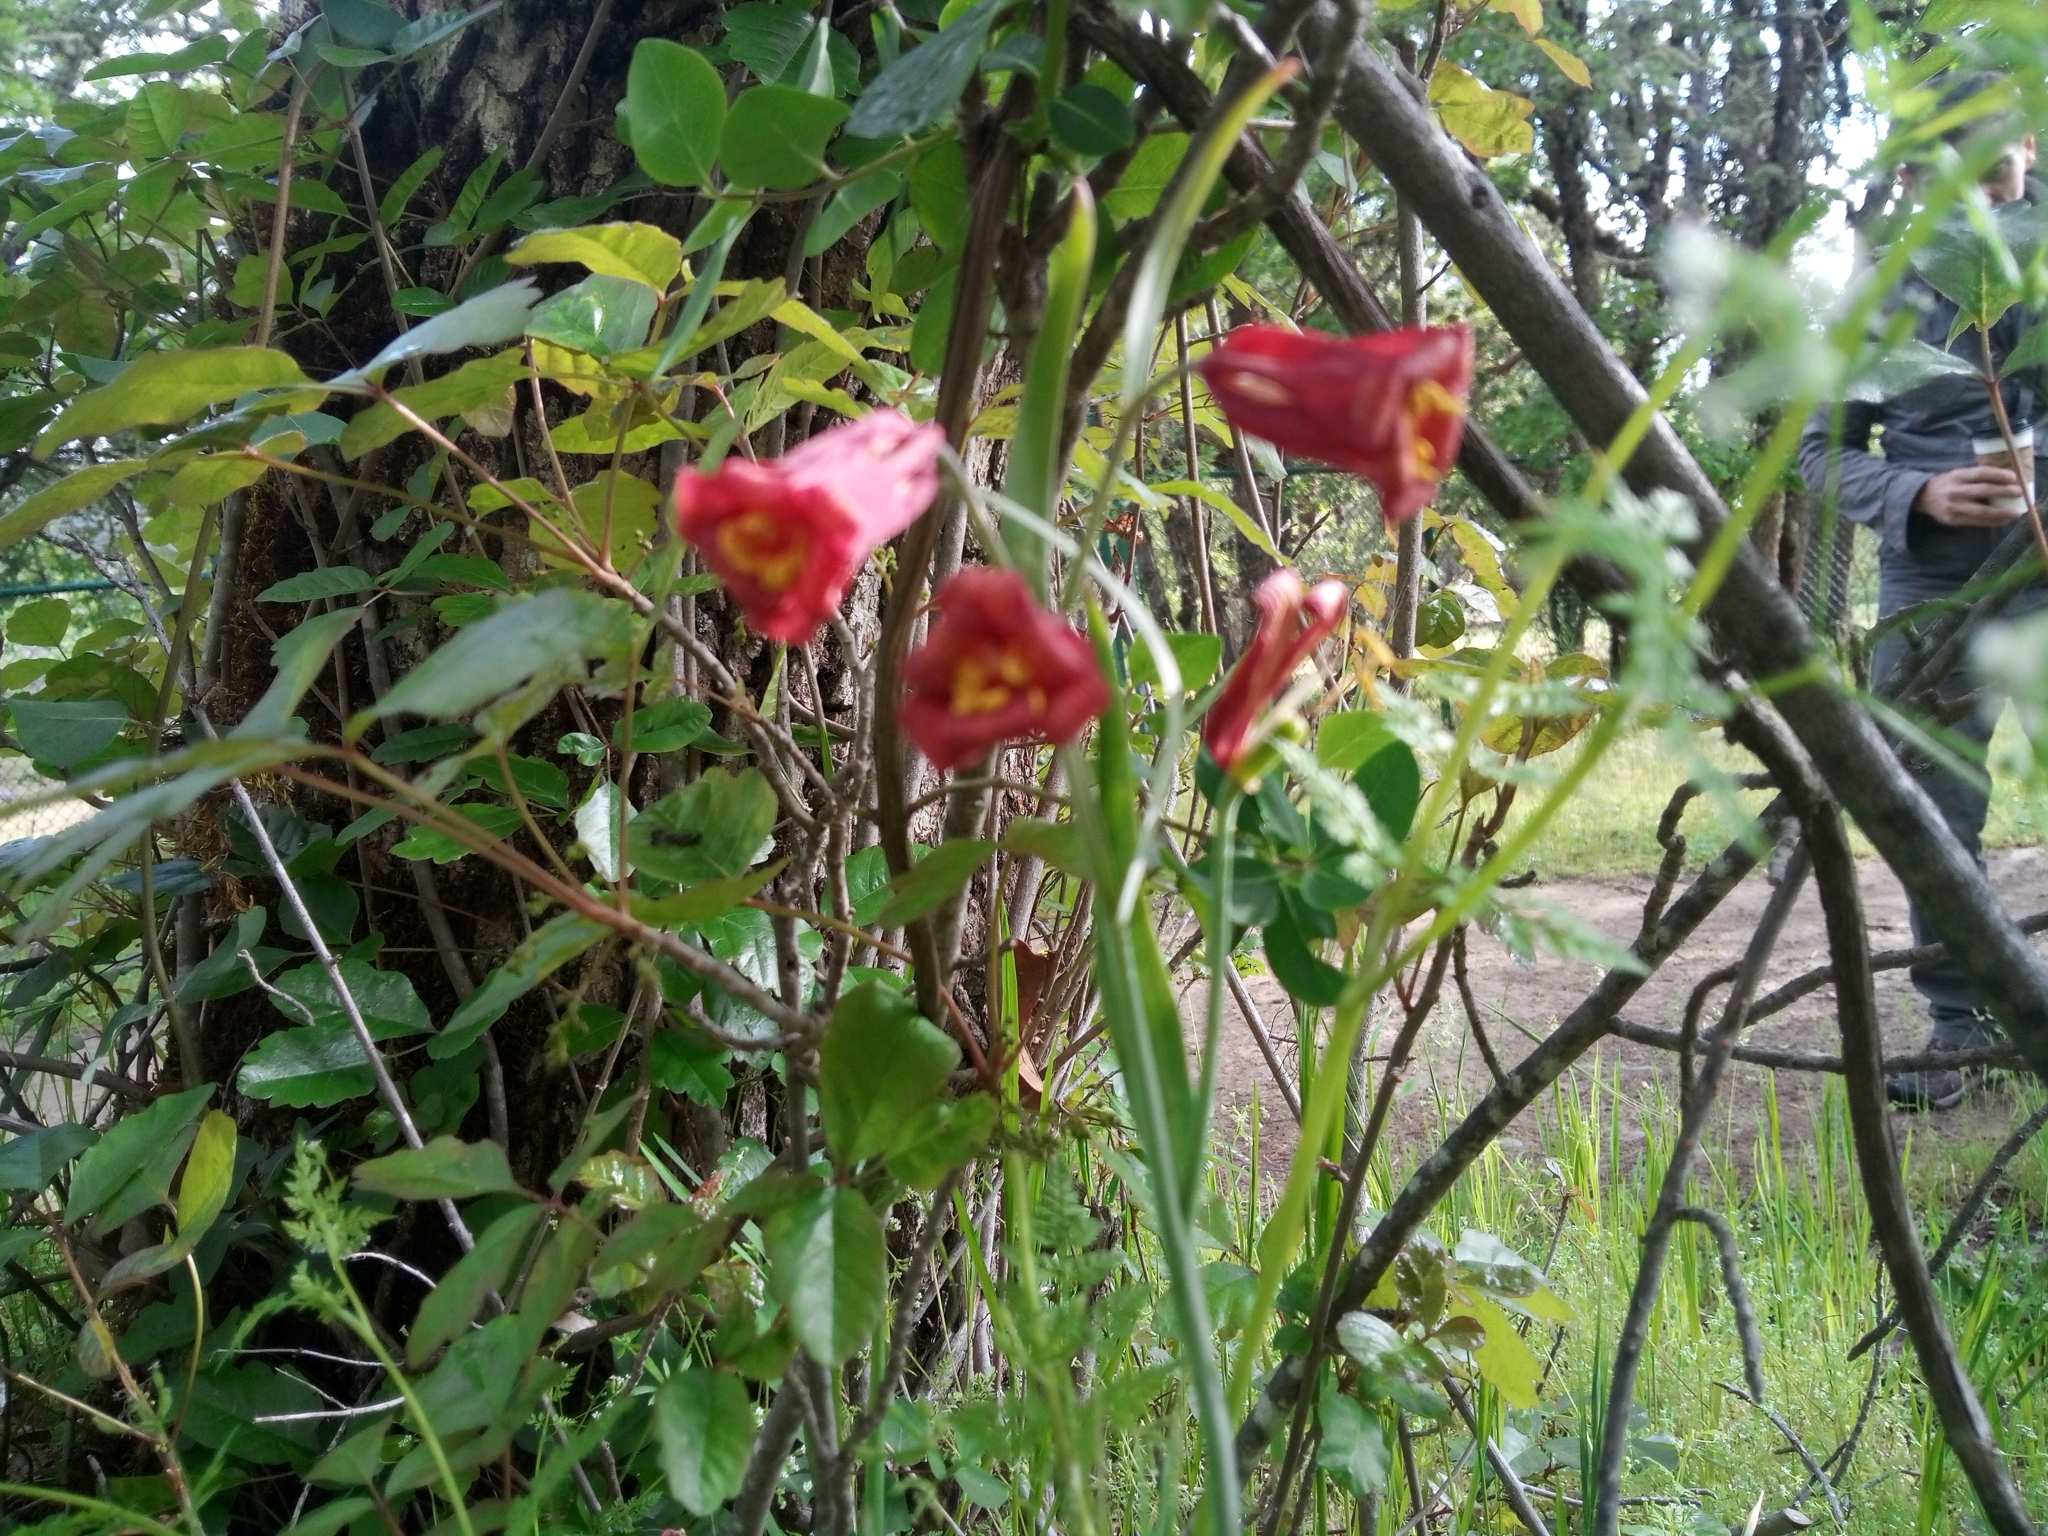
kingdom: Plantae
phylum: Tracheophyta
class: Liliopsida
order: Liliales
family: Liliaceae
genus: Fritillaria
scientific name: Fritillaria recurva
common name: Scarlet fritillary
